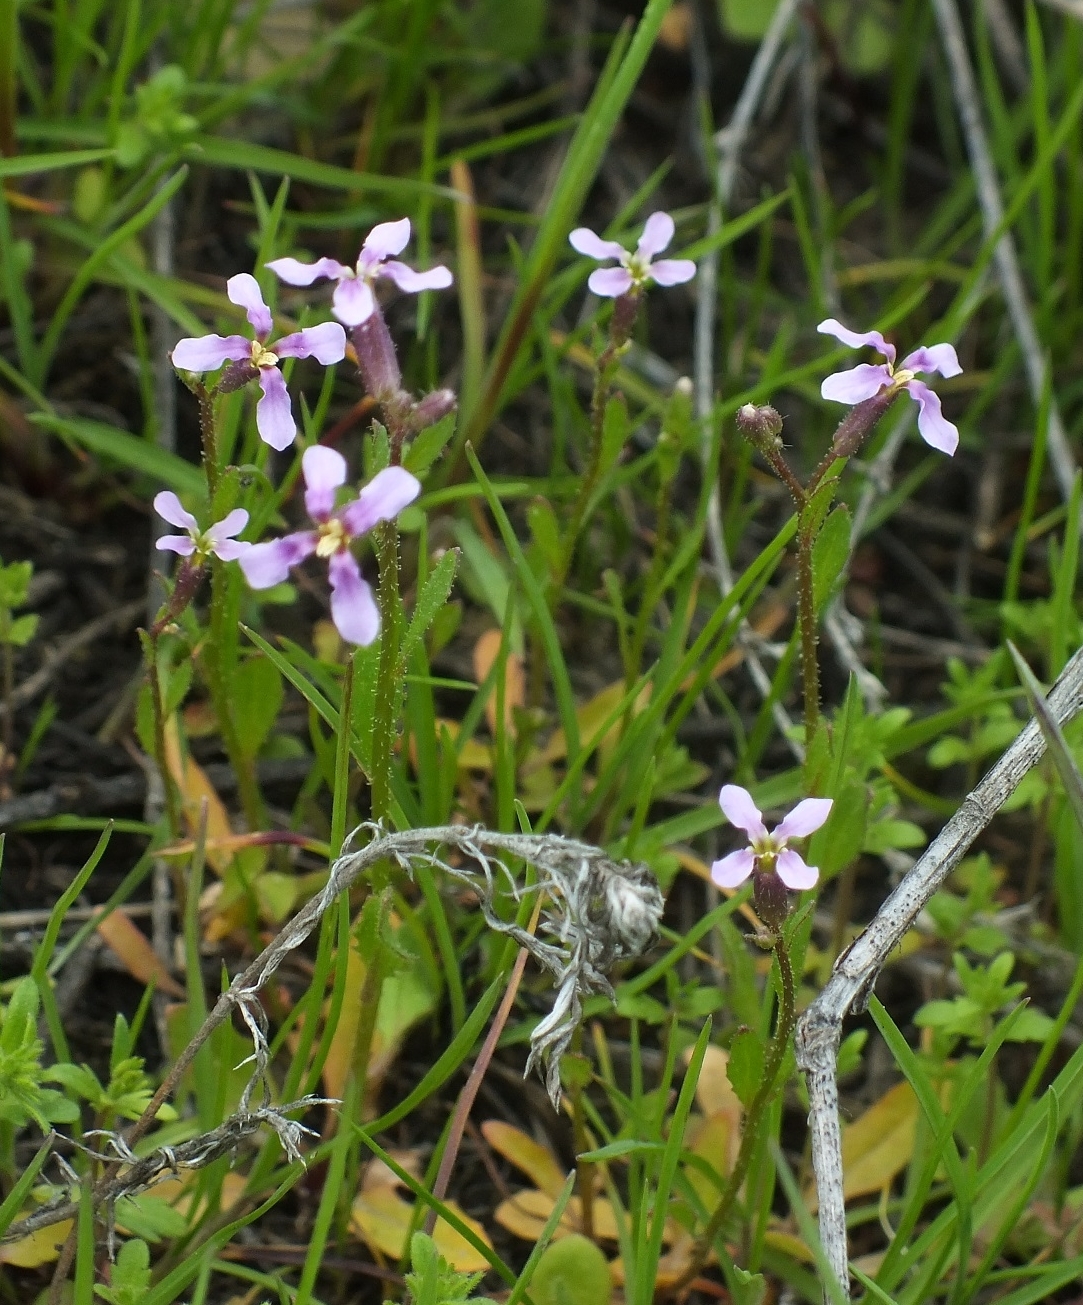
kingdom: Plantae
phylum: Tracheophyta
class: Magnoliopsida
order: Brassicales
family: Brassicaceae
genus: Chorispora
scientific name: Chorispora tenella
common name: Crossflower
